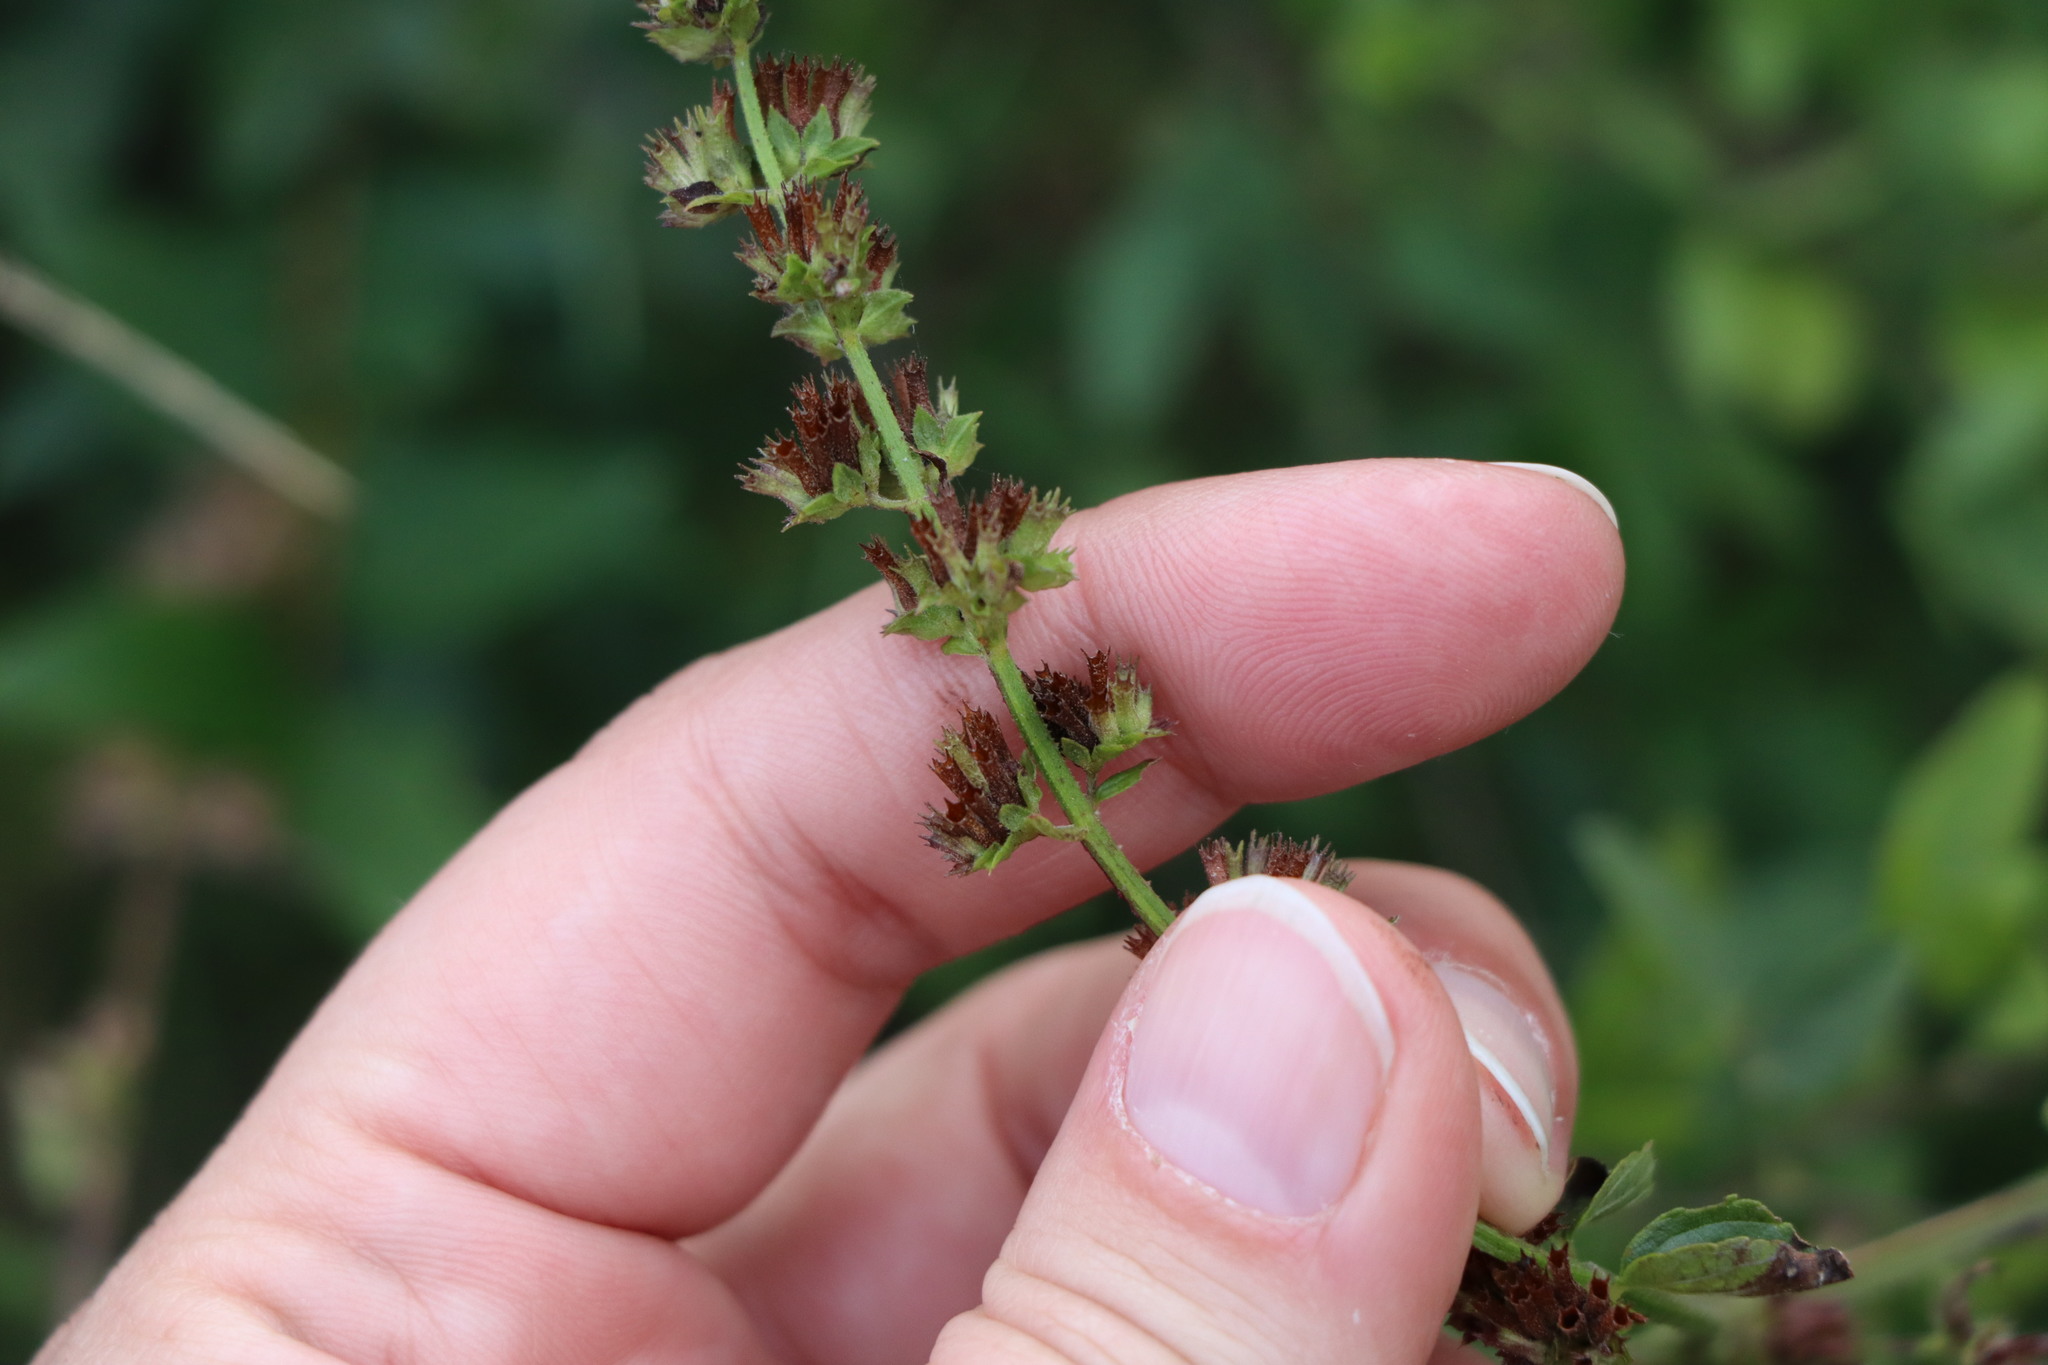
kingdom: Plantae
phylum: Tracheophyta
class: Magnoliopsida
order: Lamiales
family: Lamiaceae
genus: Cantinoa
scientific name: Cantinoa mutabilis
